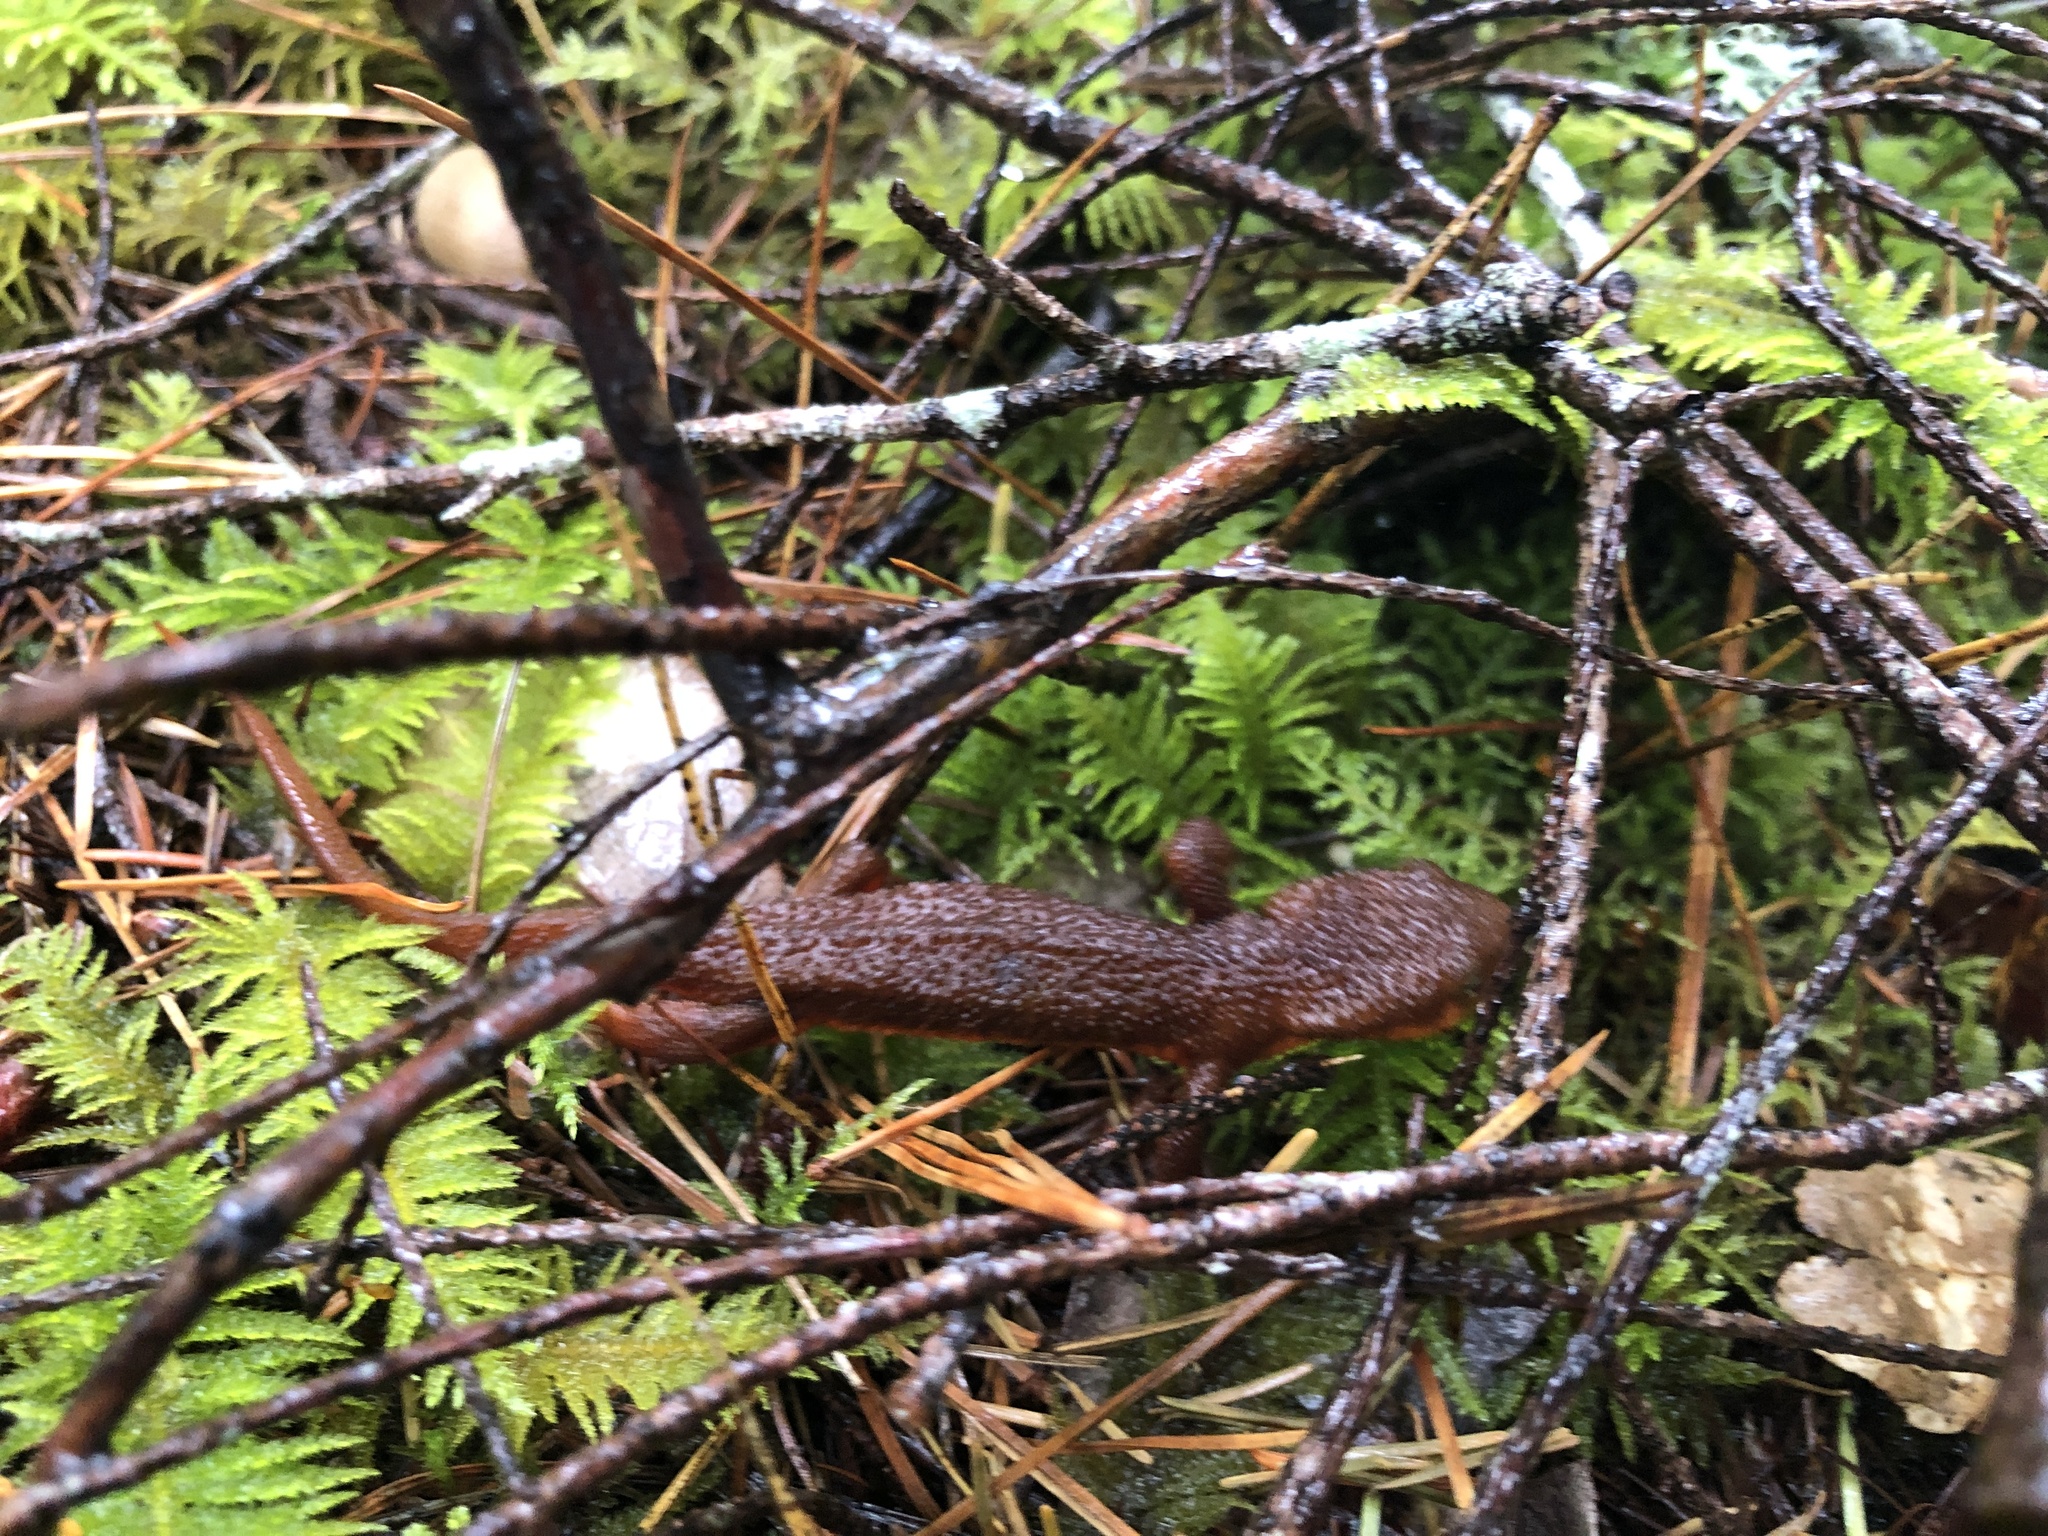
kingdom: Animalia
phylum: Chordata
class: Amphibia
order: Caudata
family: Salamandridae
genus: Taricha
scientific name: Taricha granulosa
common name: Roughskin newt
